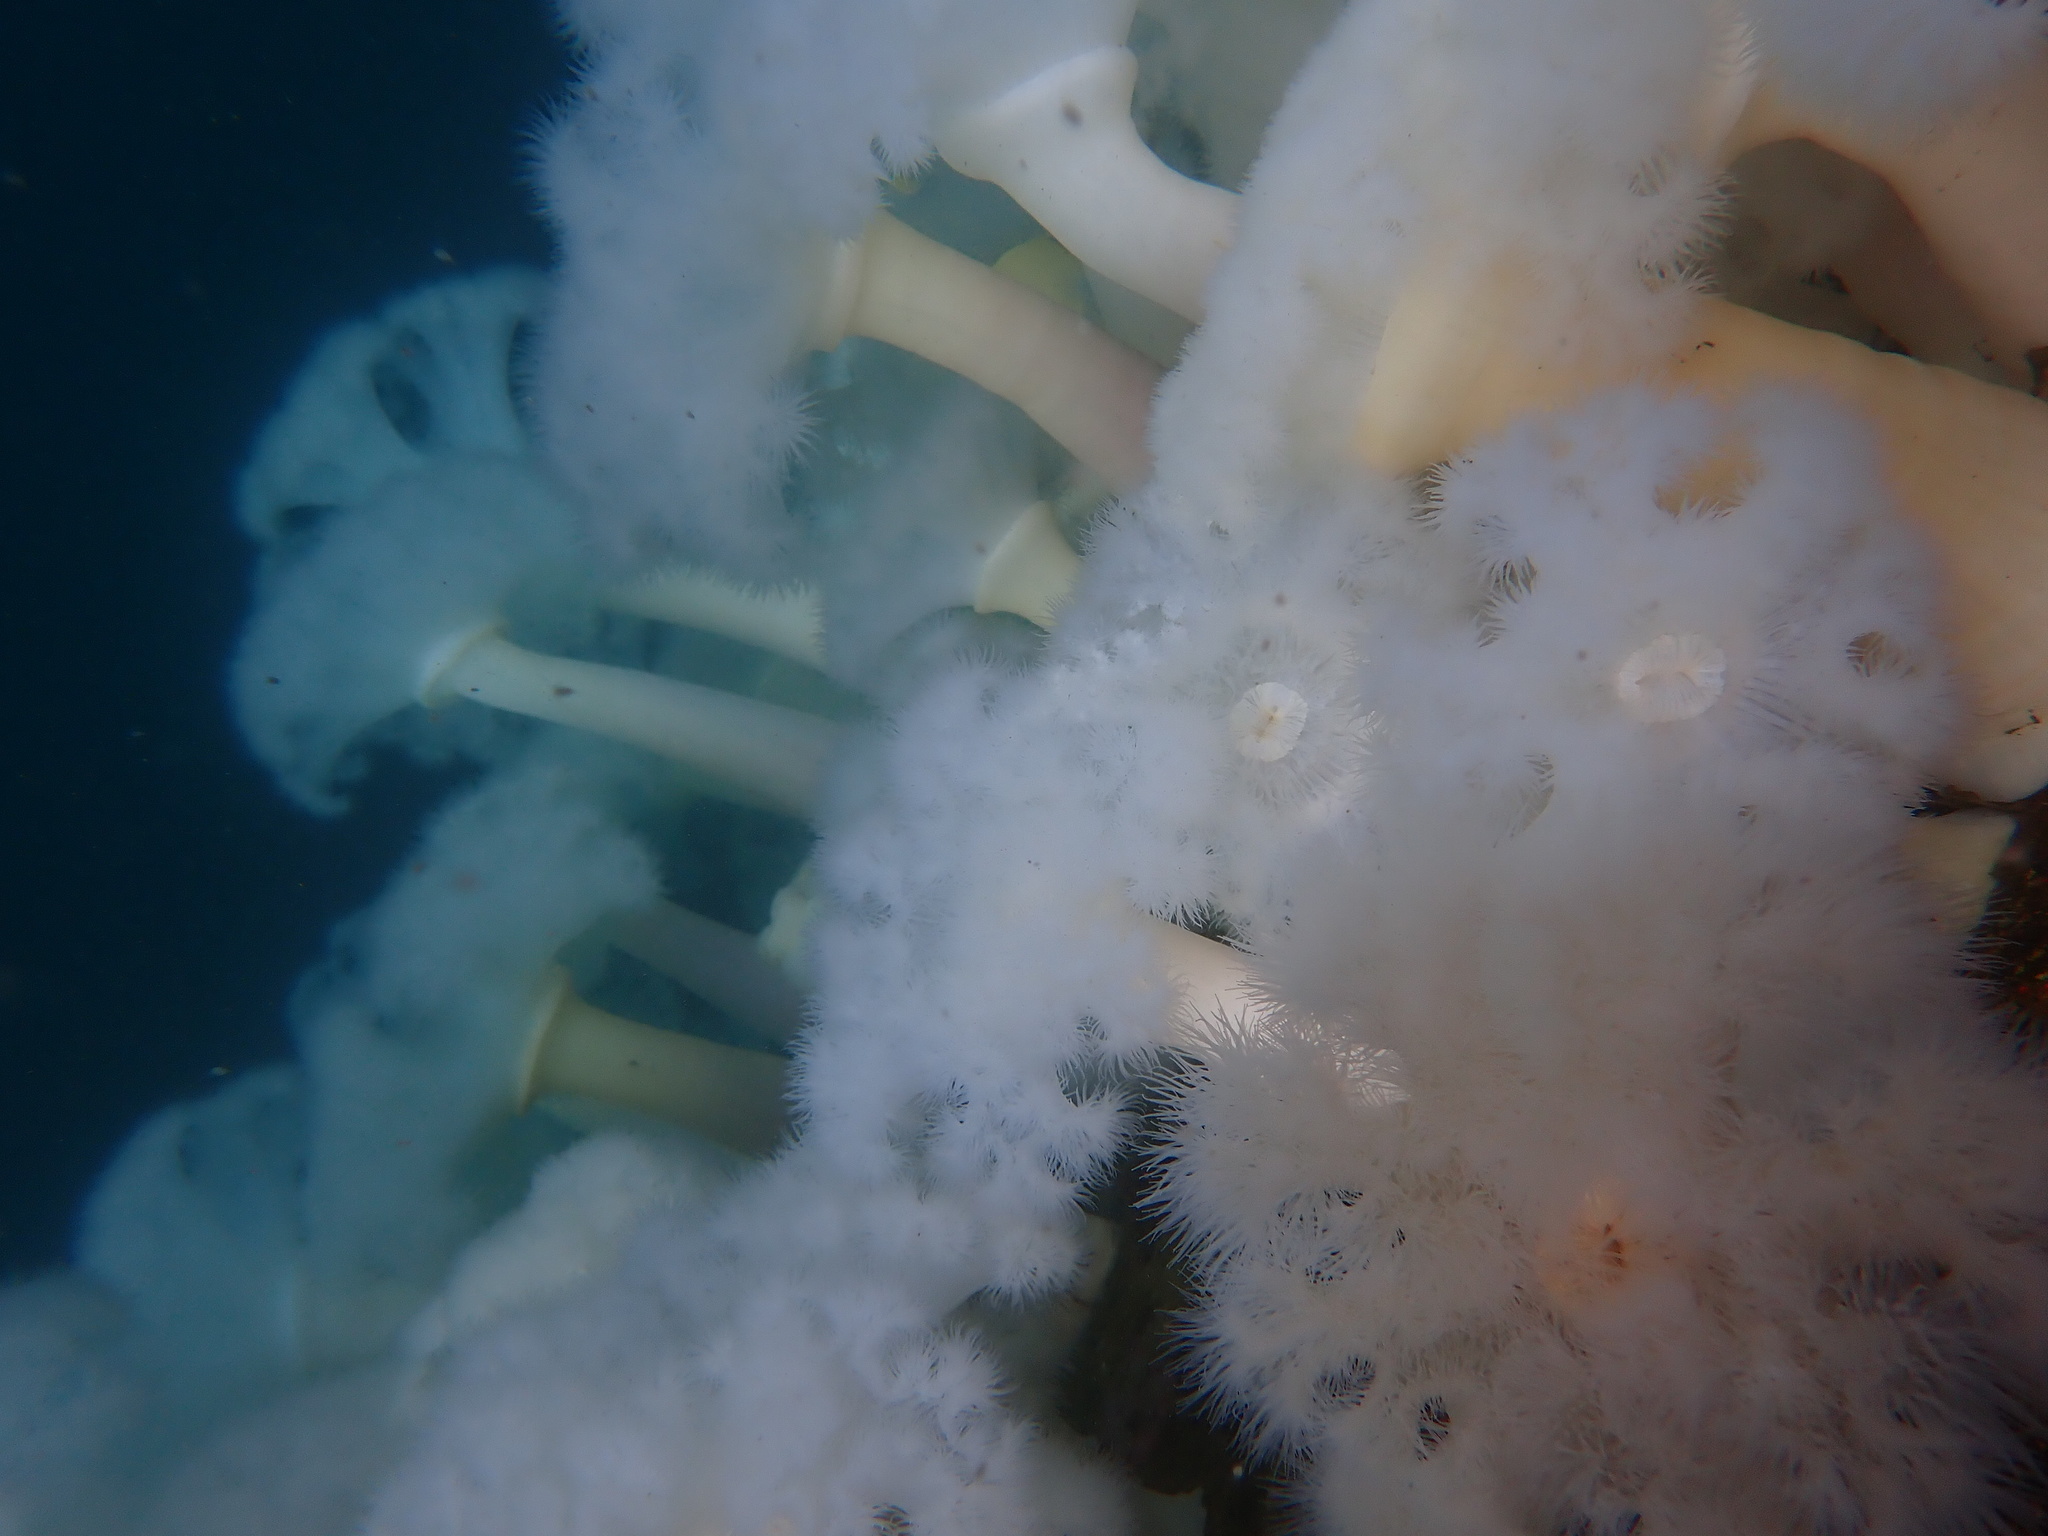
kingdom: Animalia
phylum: Cnidaria
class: Anthozoa
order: Actiniaria
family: Metridiidae
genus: Metridium
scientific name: Metridium farcimen
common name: Gigantic anemone
